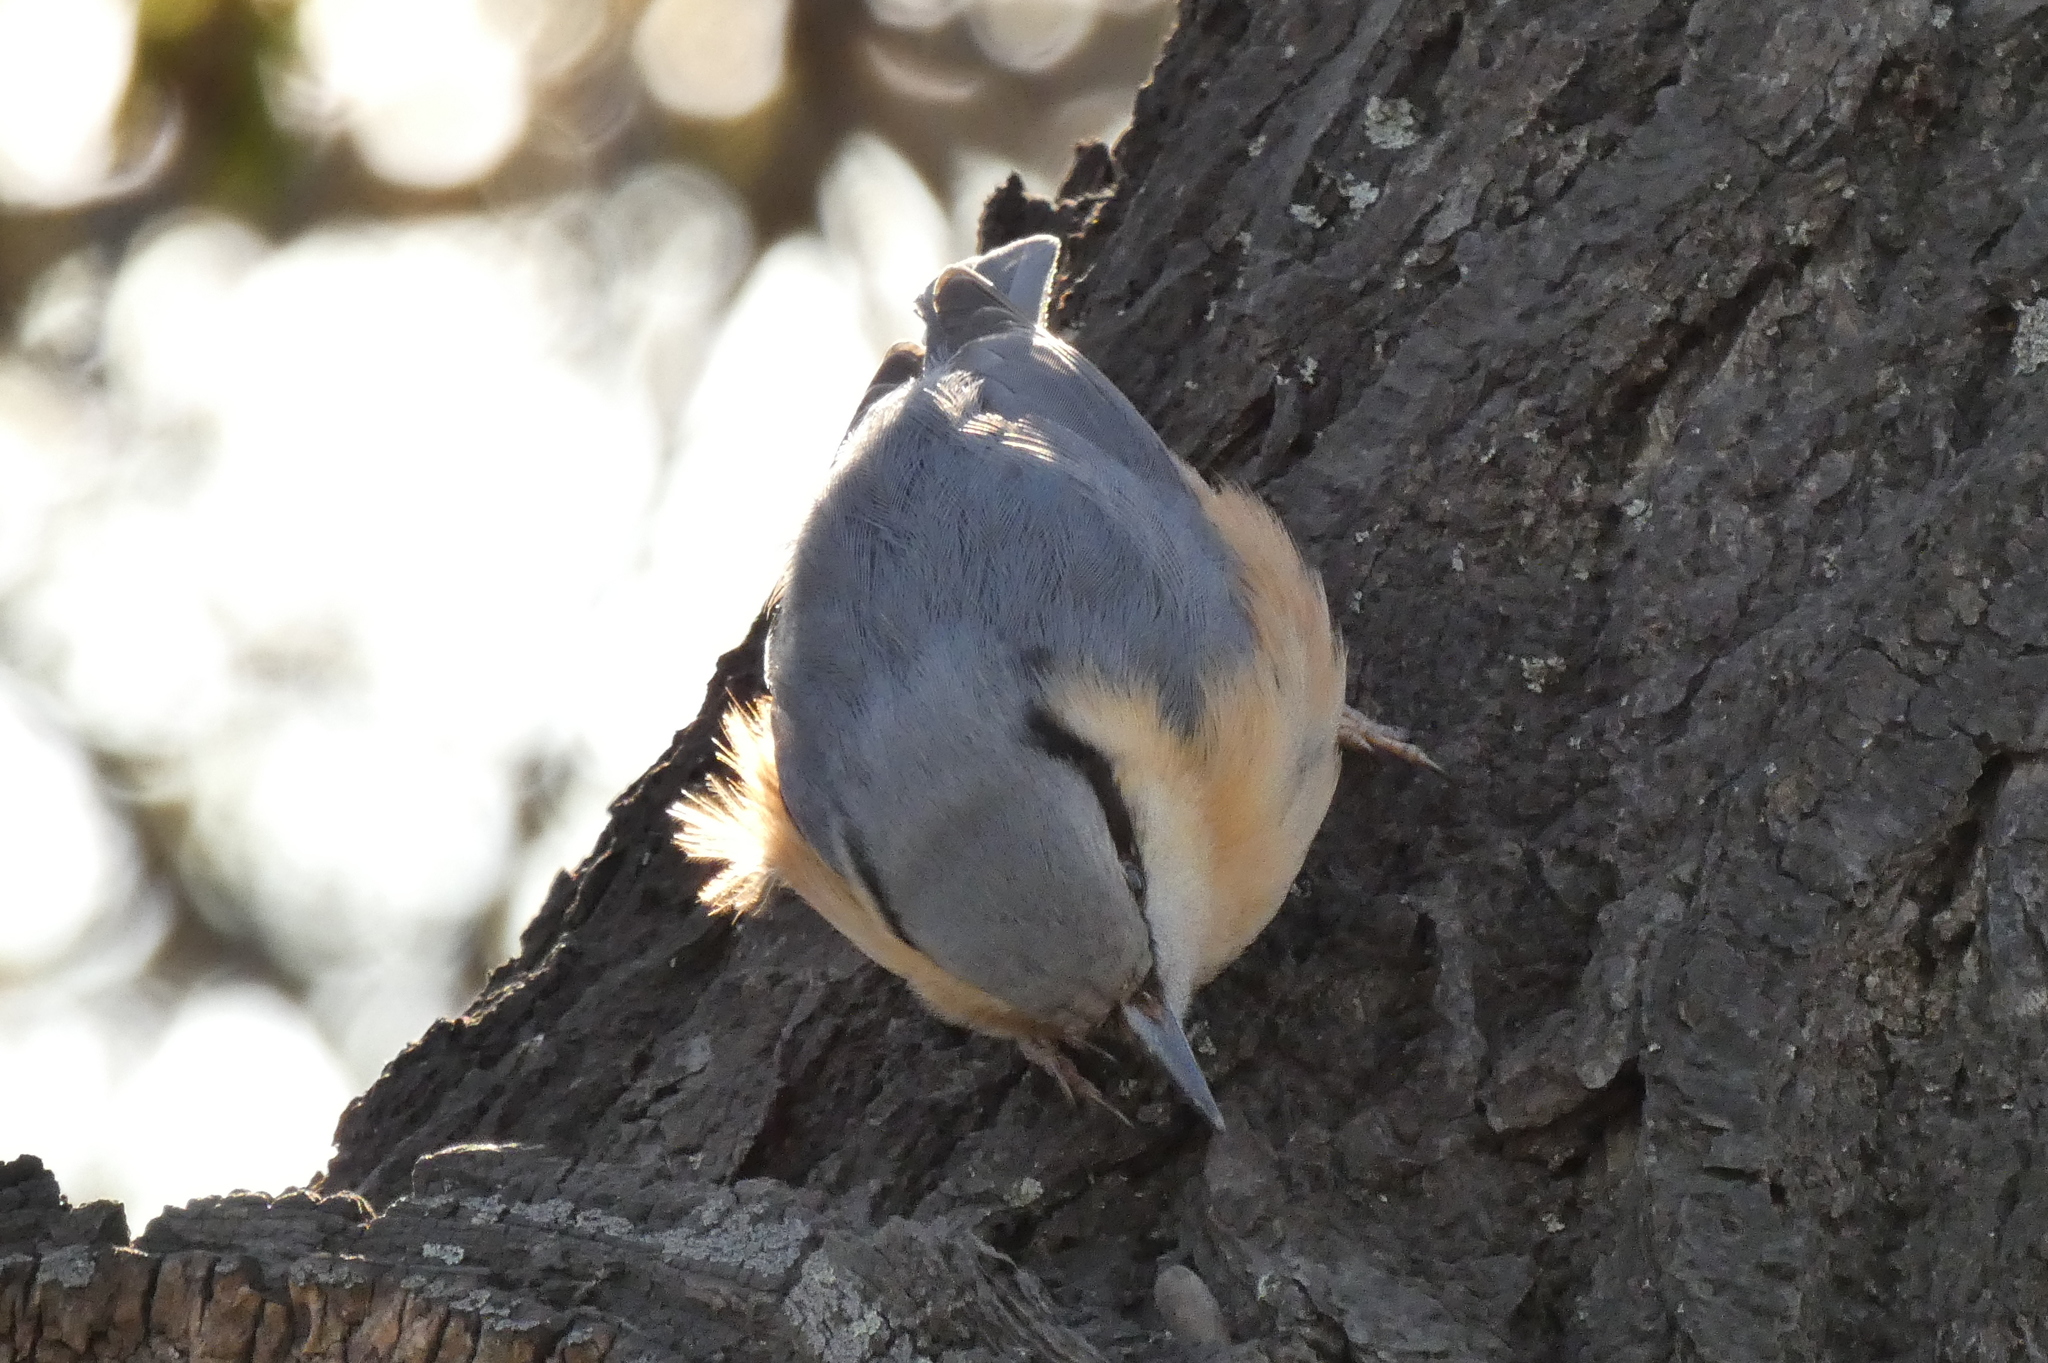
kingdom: Animalia
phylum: Chordata
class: Aves
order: Passeriformes
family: Sittidae
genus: Sitta
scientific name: Sitta europaea
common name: Eurasian nuthatch
